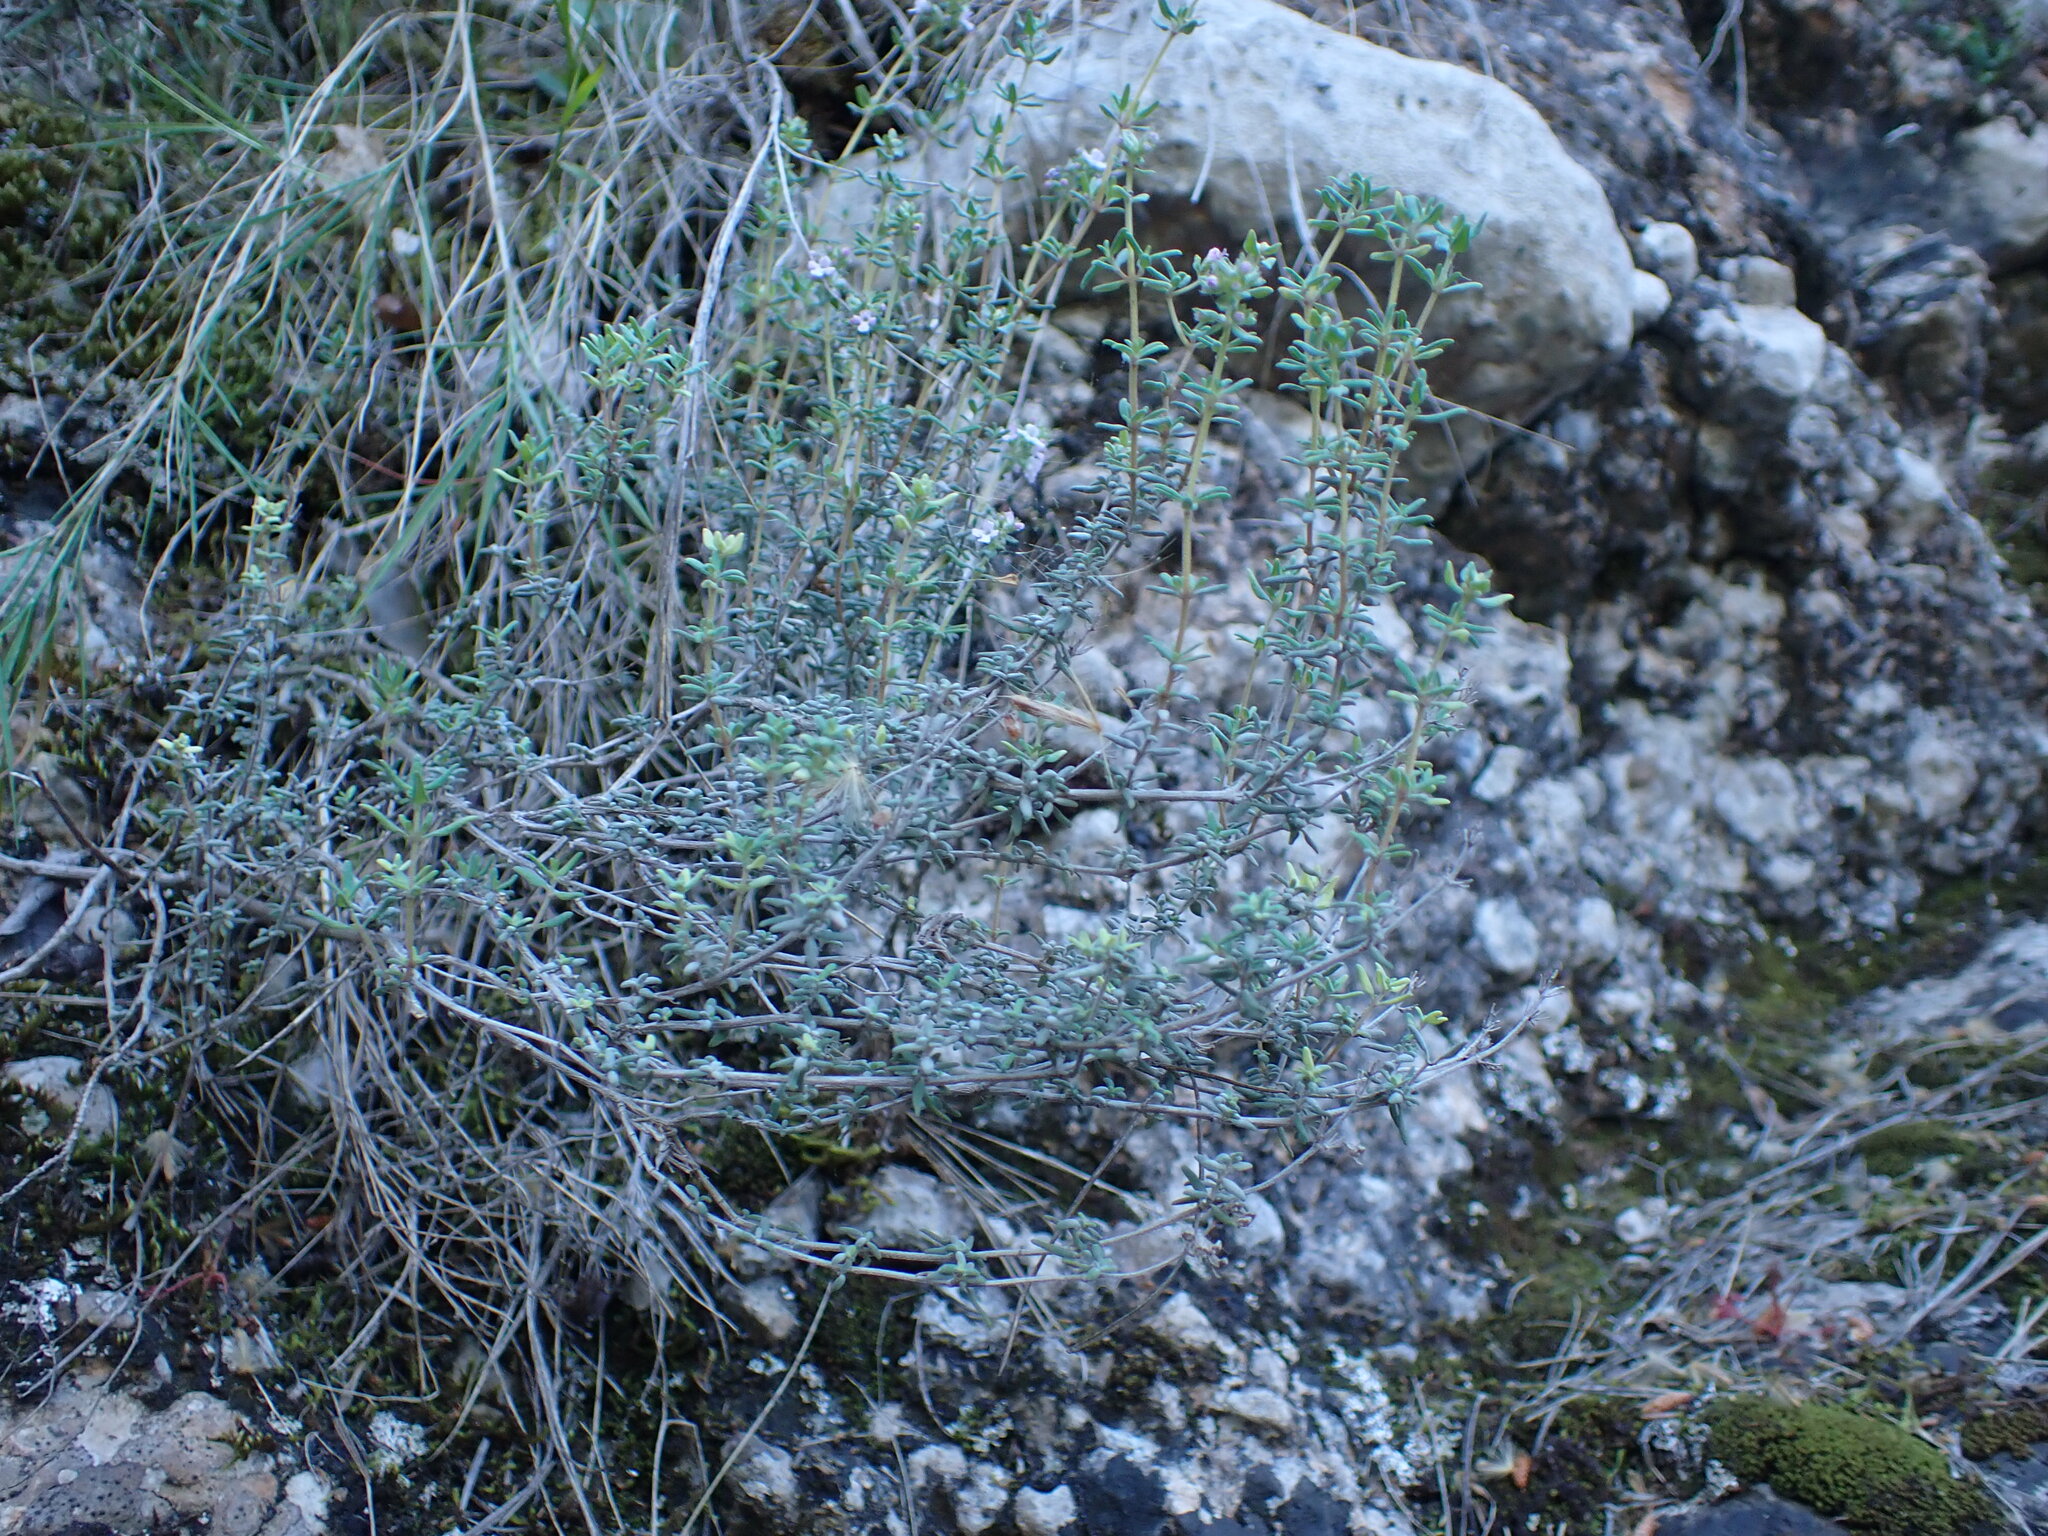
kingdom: Plantae
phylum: Tracheophyta
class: Magnoliopsida
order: Lamiales
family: Lamiaceae
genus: Thymus
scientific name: Thymus vulgaris
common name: Garden thyme
